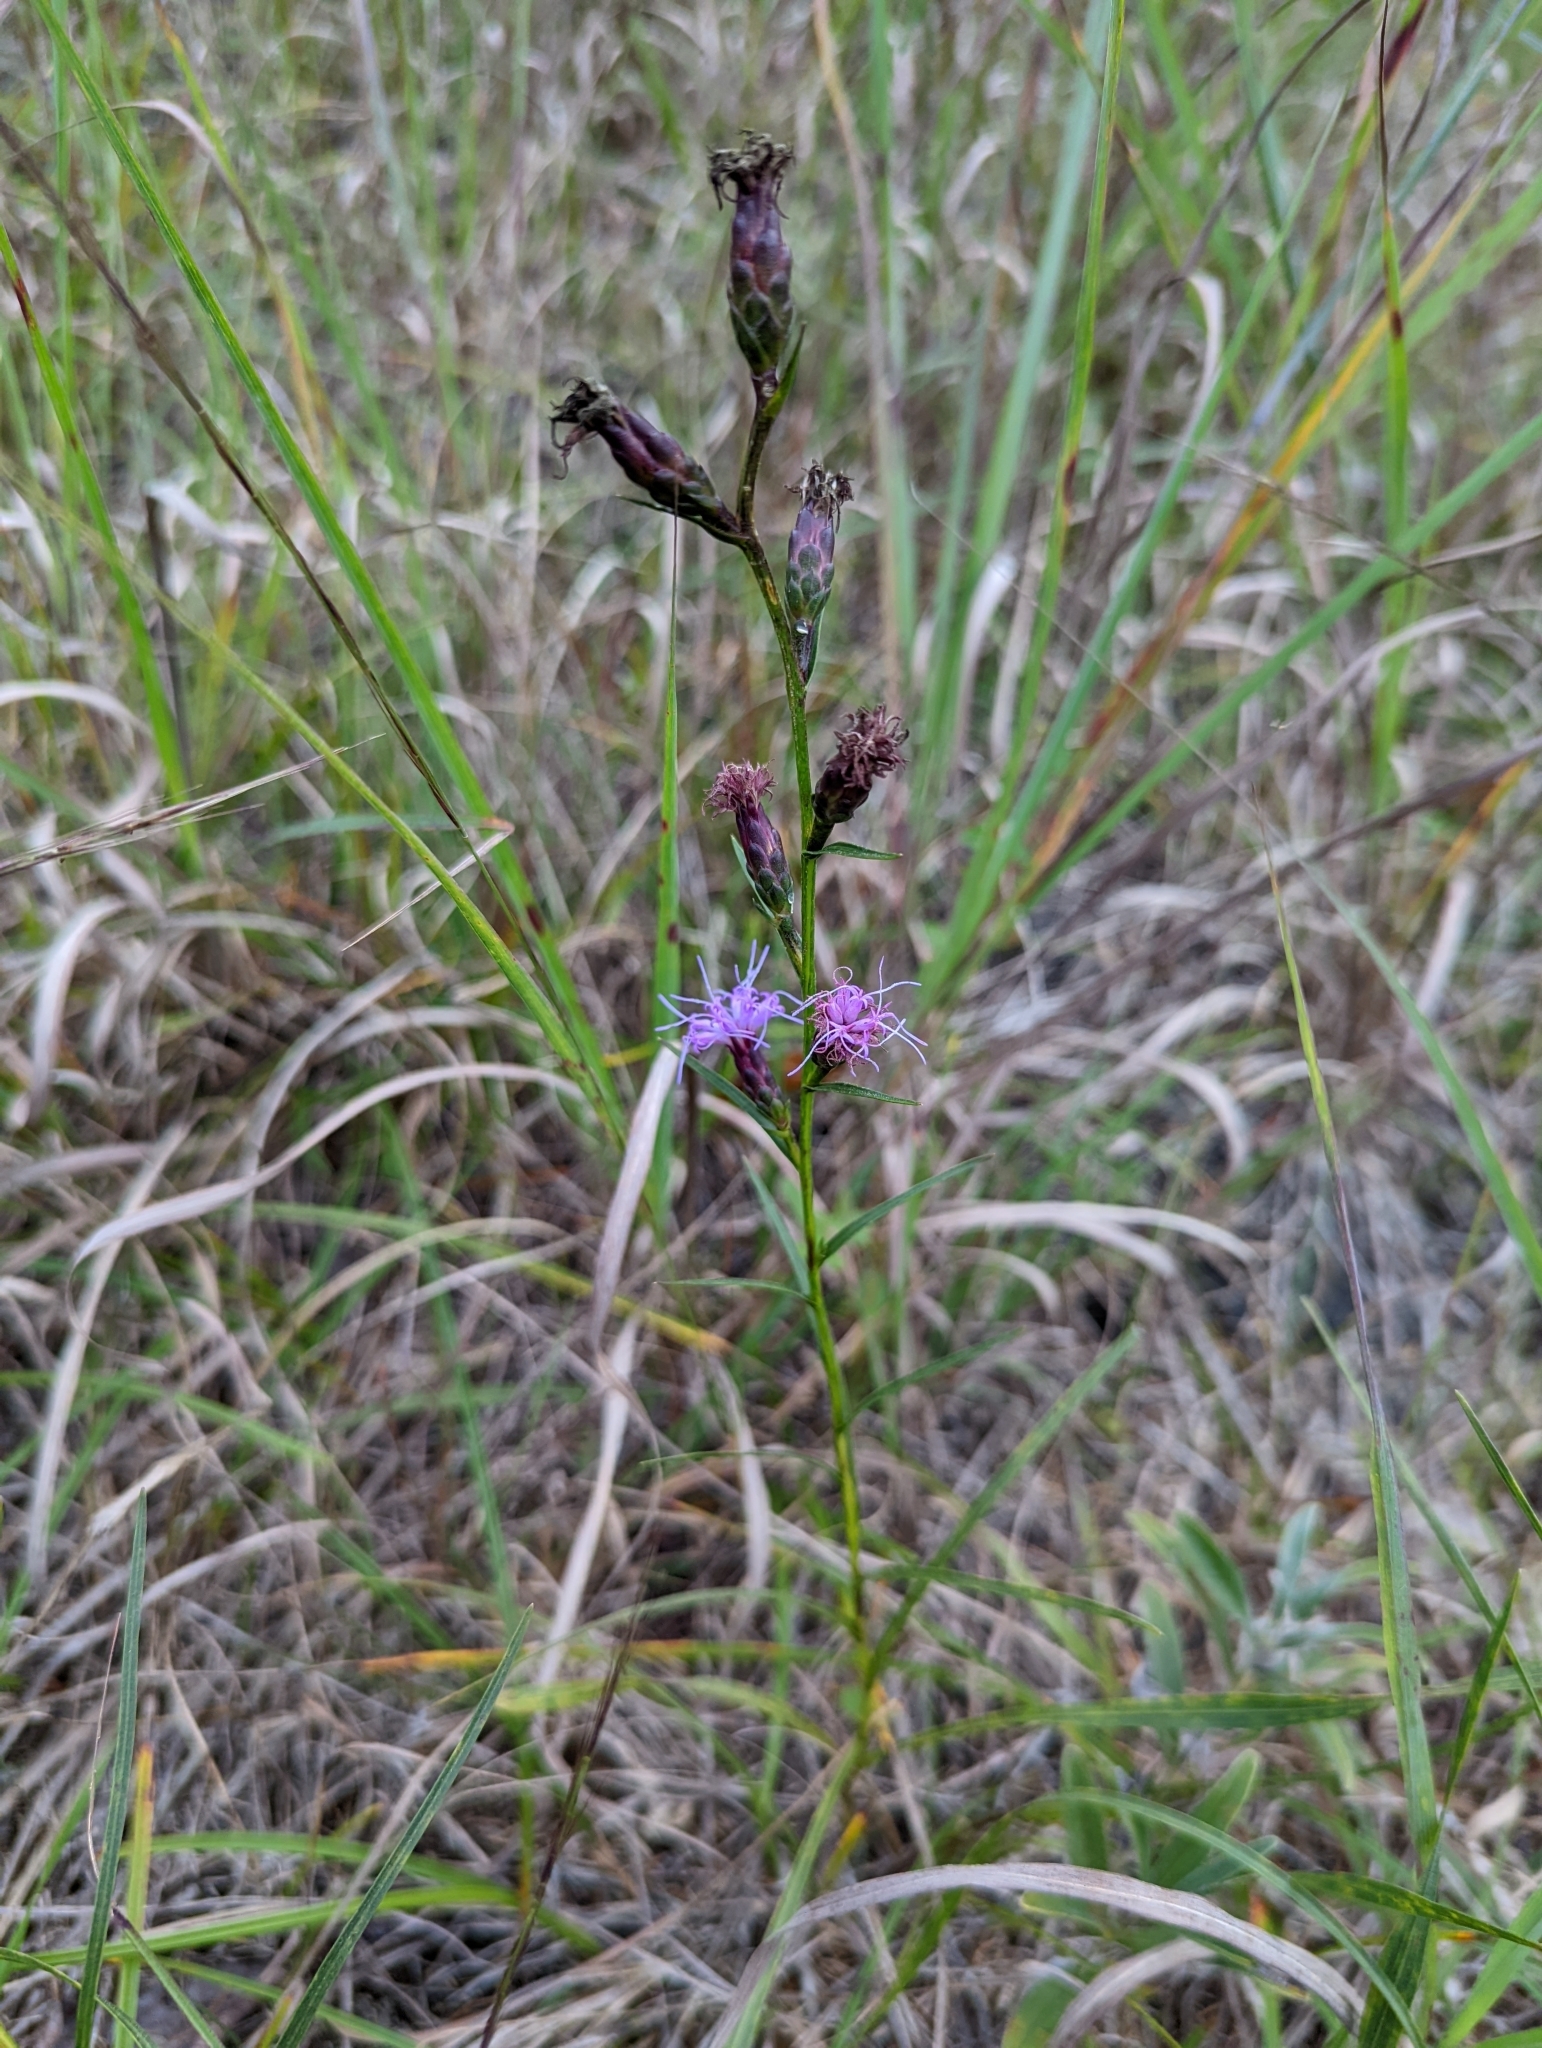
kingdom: Plantae
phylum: Tracheophyta
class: Magnoliopsida
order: Asterales
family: Asteraceae
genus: Liatris
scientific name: Liatris cylindracea
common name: Few-head blazingstar
